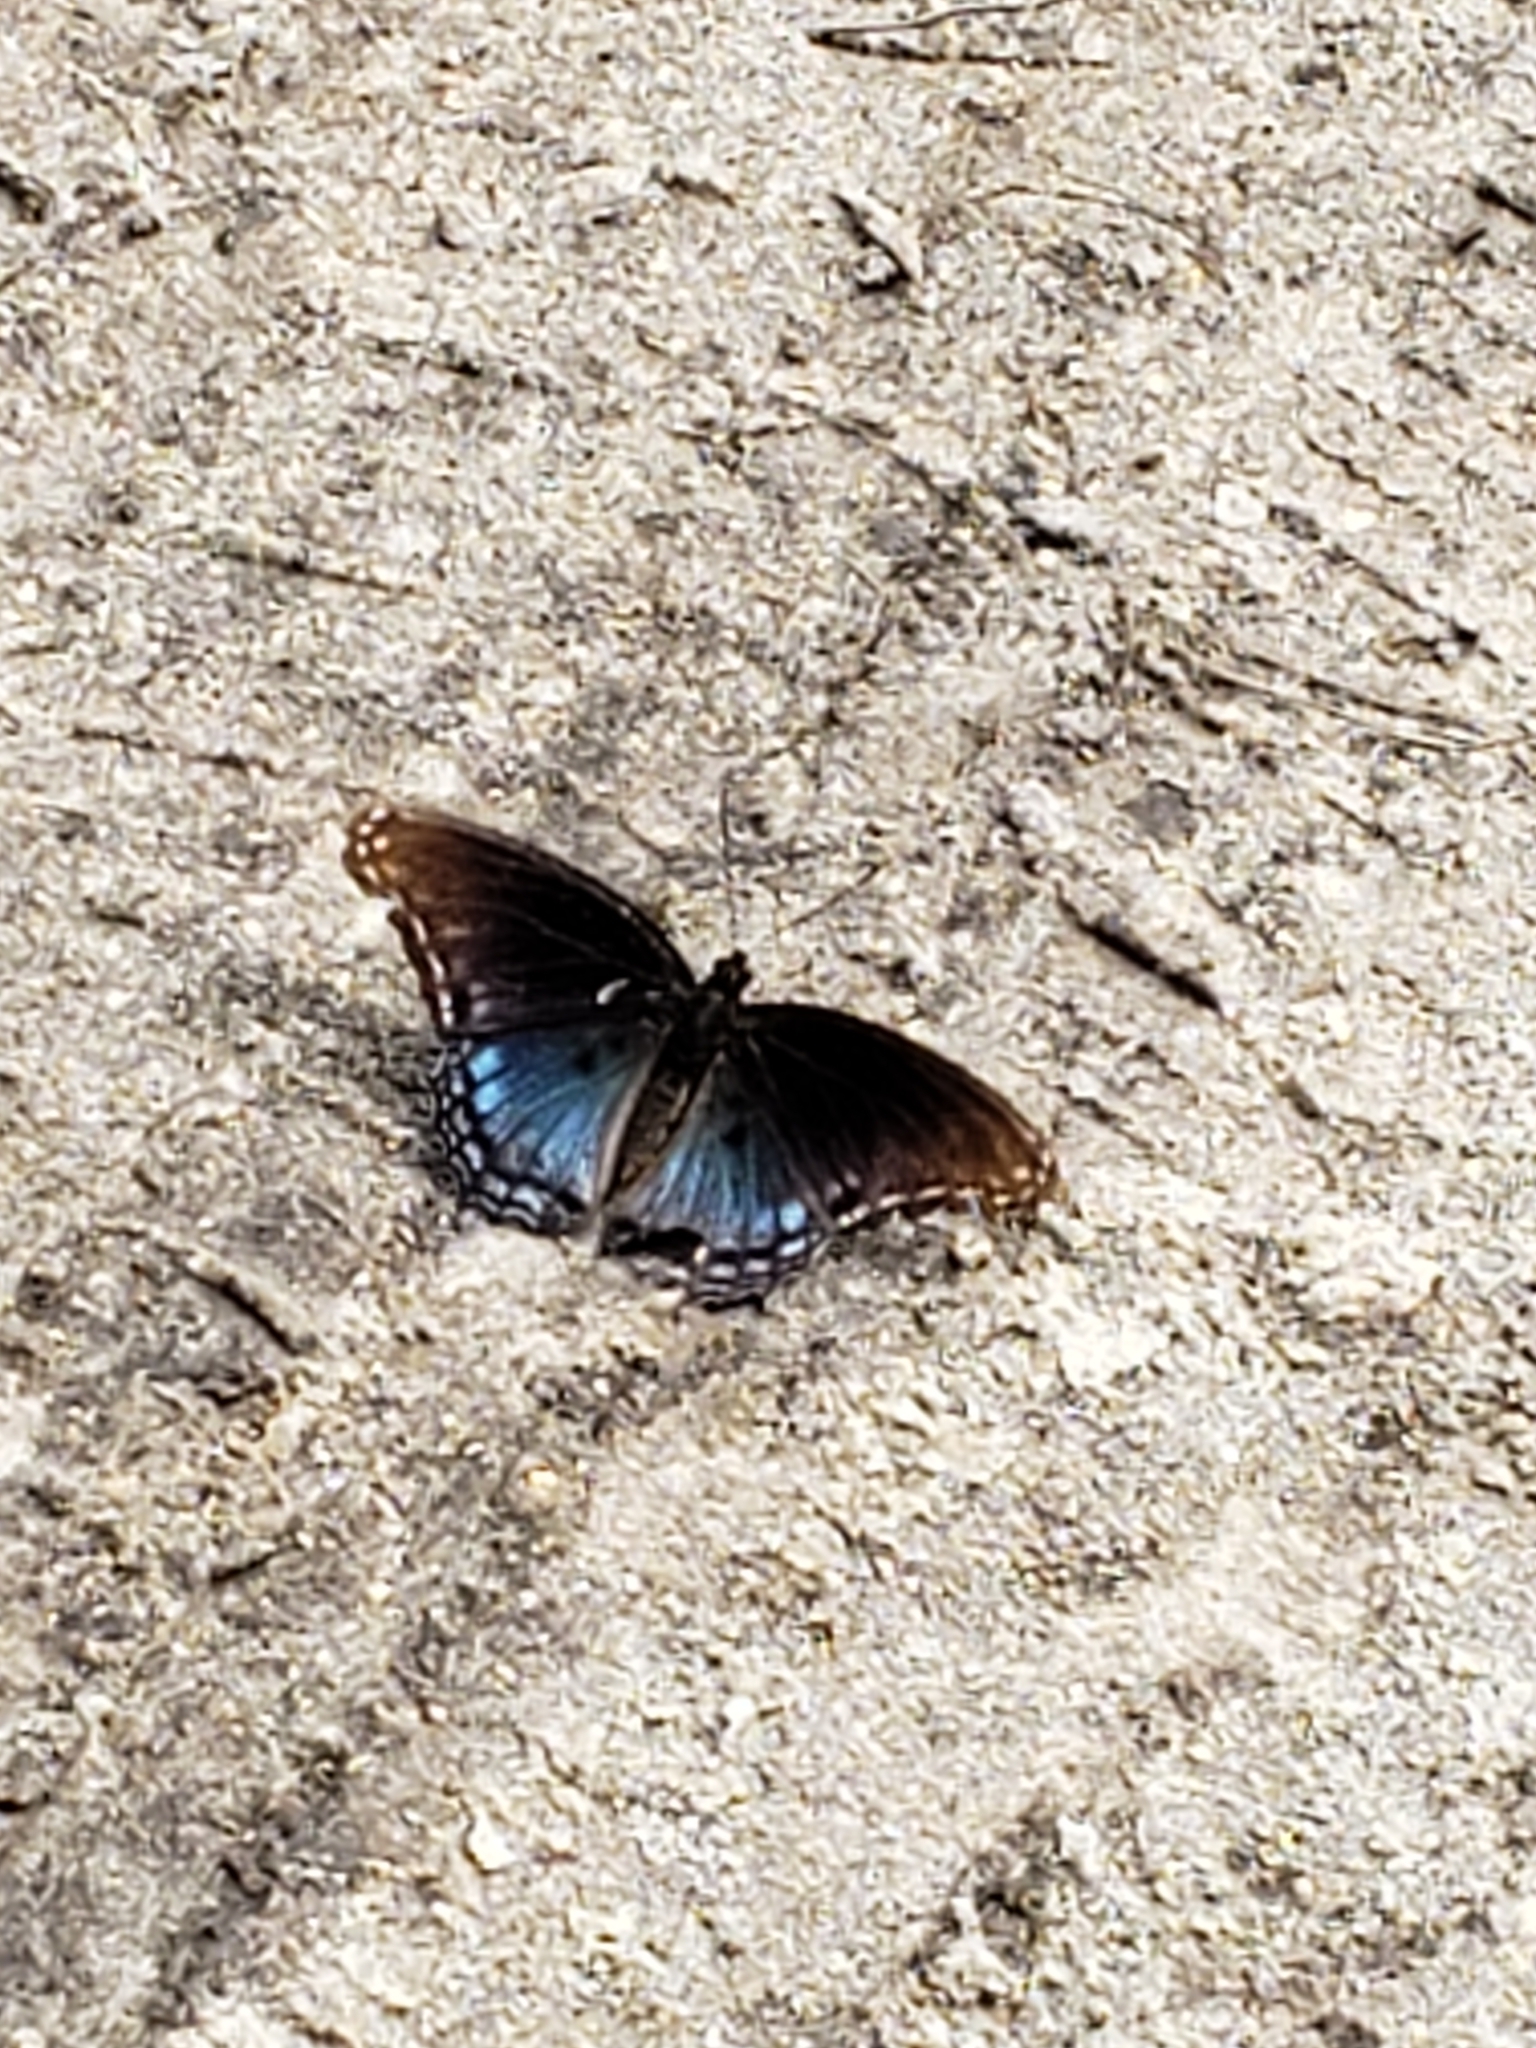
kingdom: Animalia
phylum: Arthropoda
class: Insecta
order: Lepidoptera
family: Nymphalidae
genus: Limenitis
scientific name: Limenitis arthemis
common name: Red-spotted admiral
